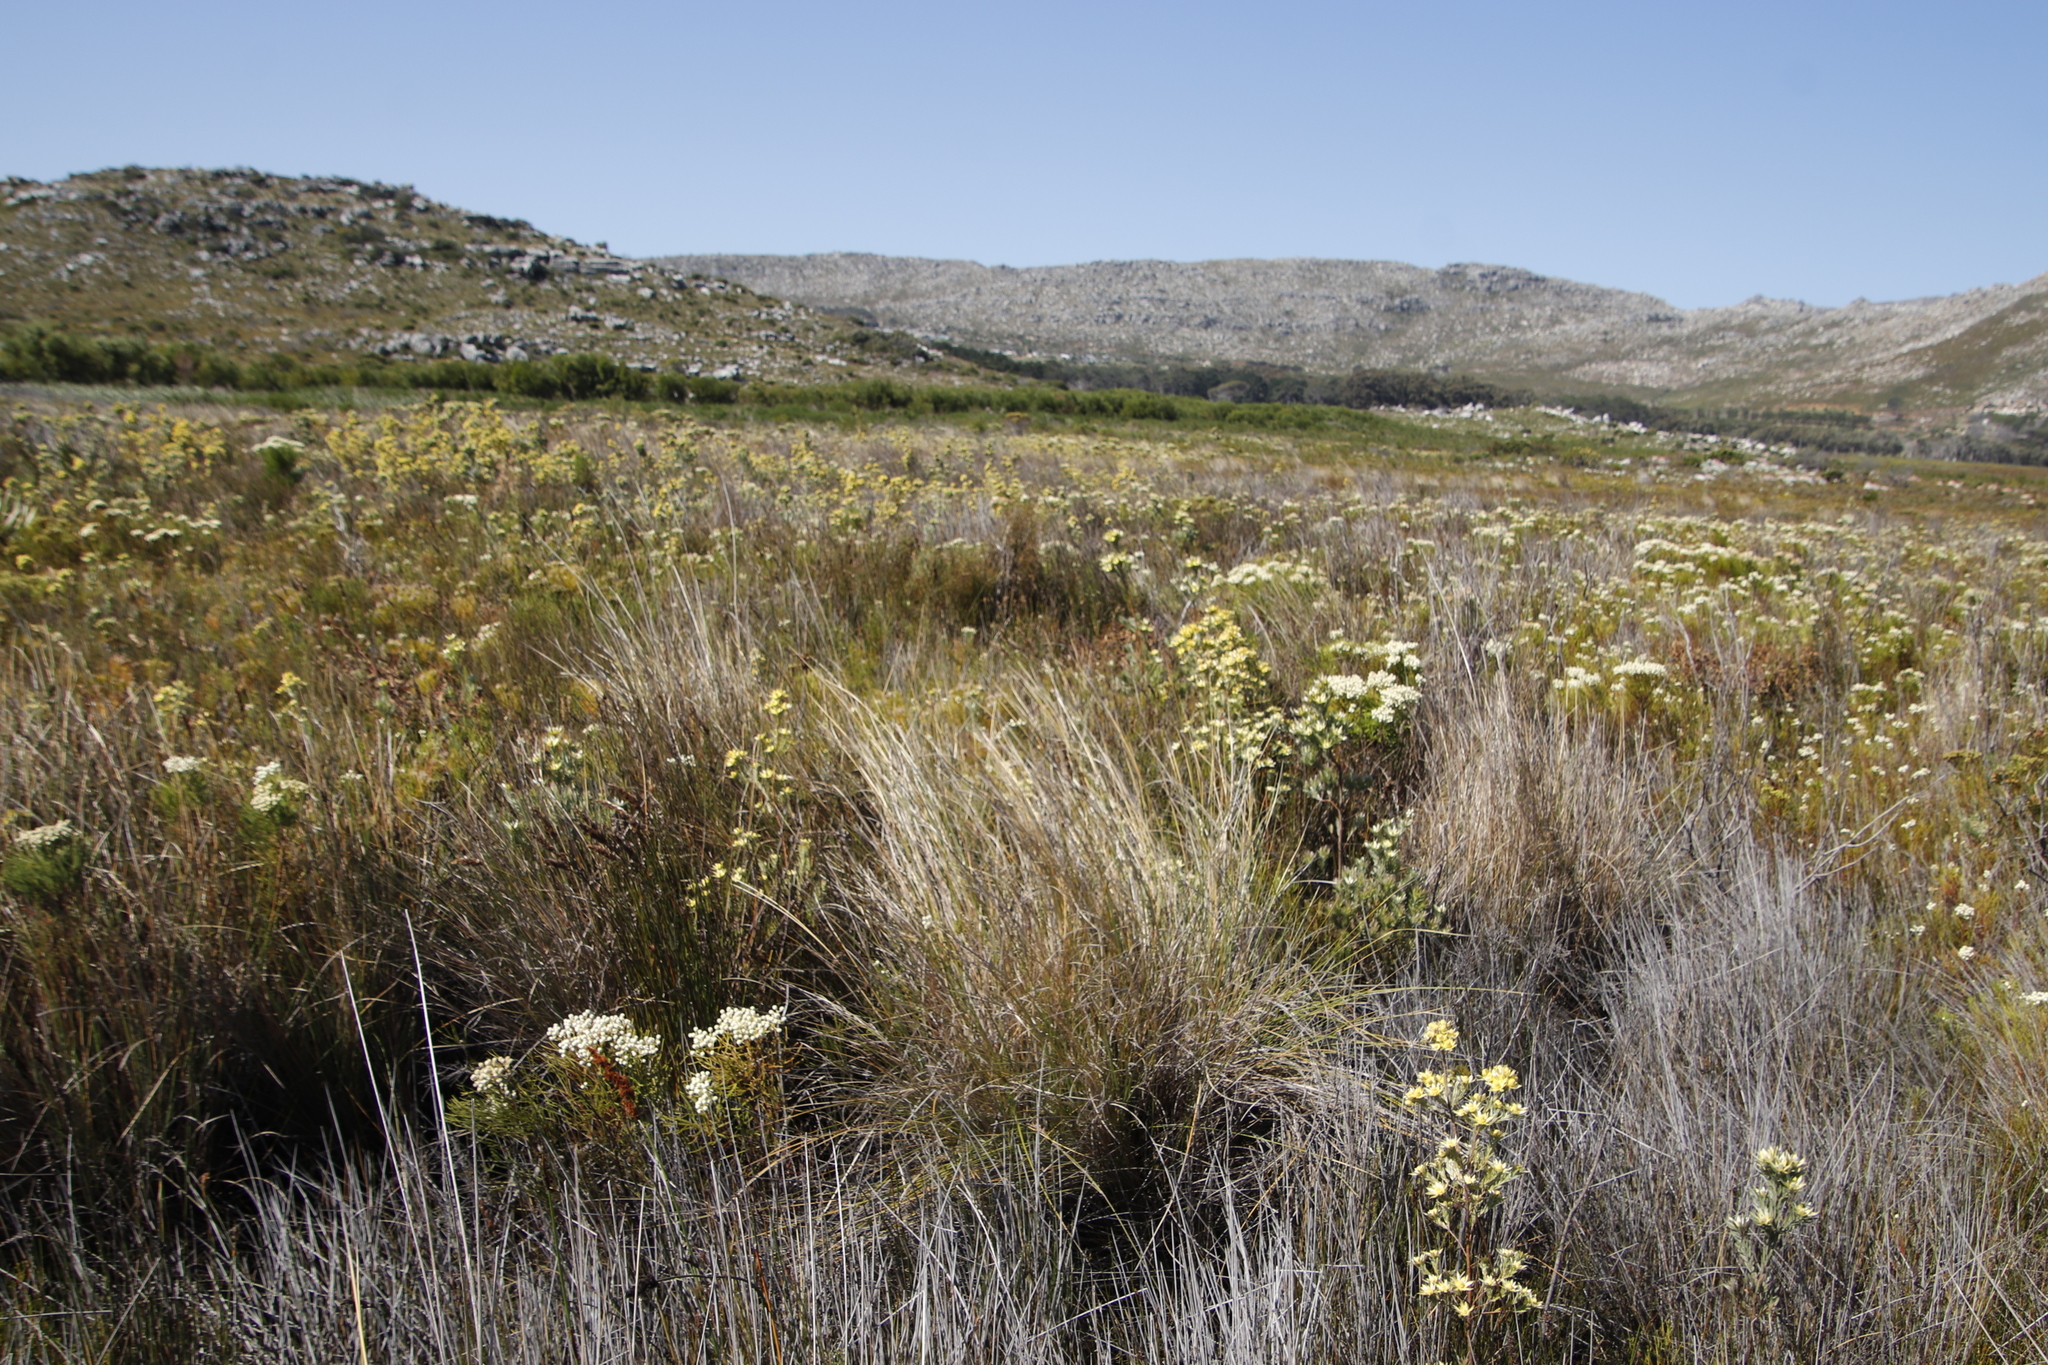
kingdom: Plantae
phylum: Tracheophyta
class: Magnoliopsida
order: Proteales
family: Proteaceae
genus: Leucadendron
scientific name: Leucadendron floridum
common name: Flats conebush
